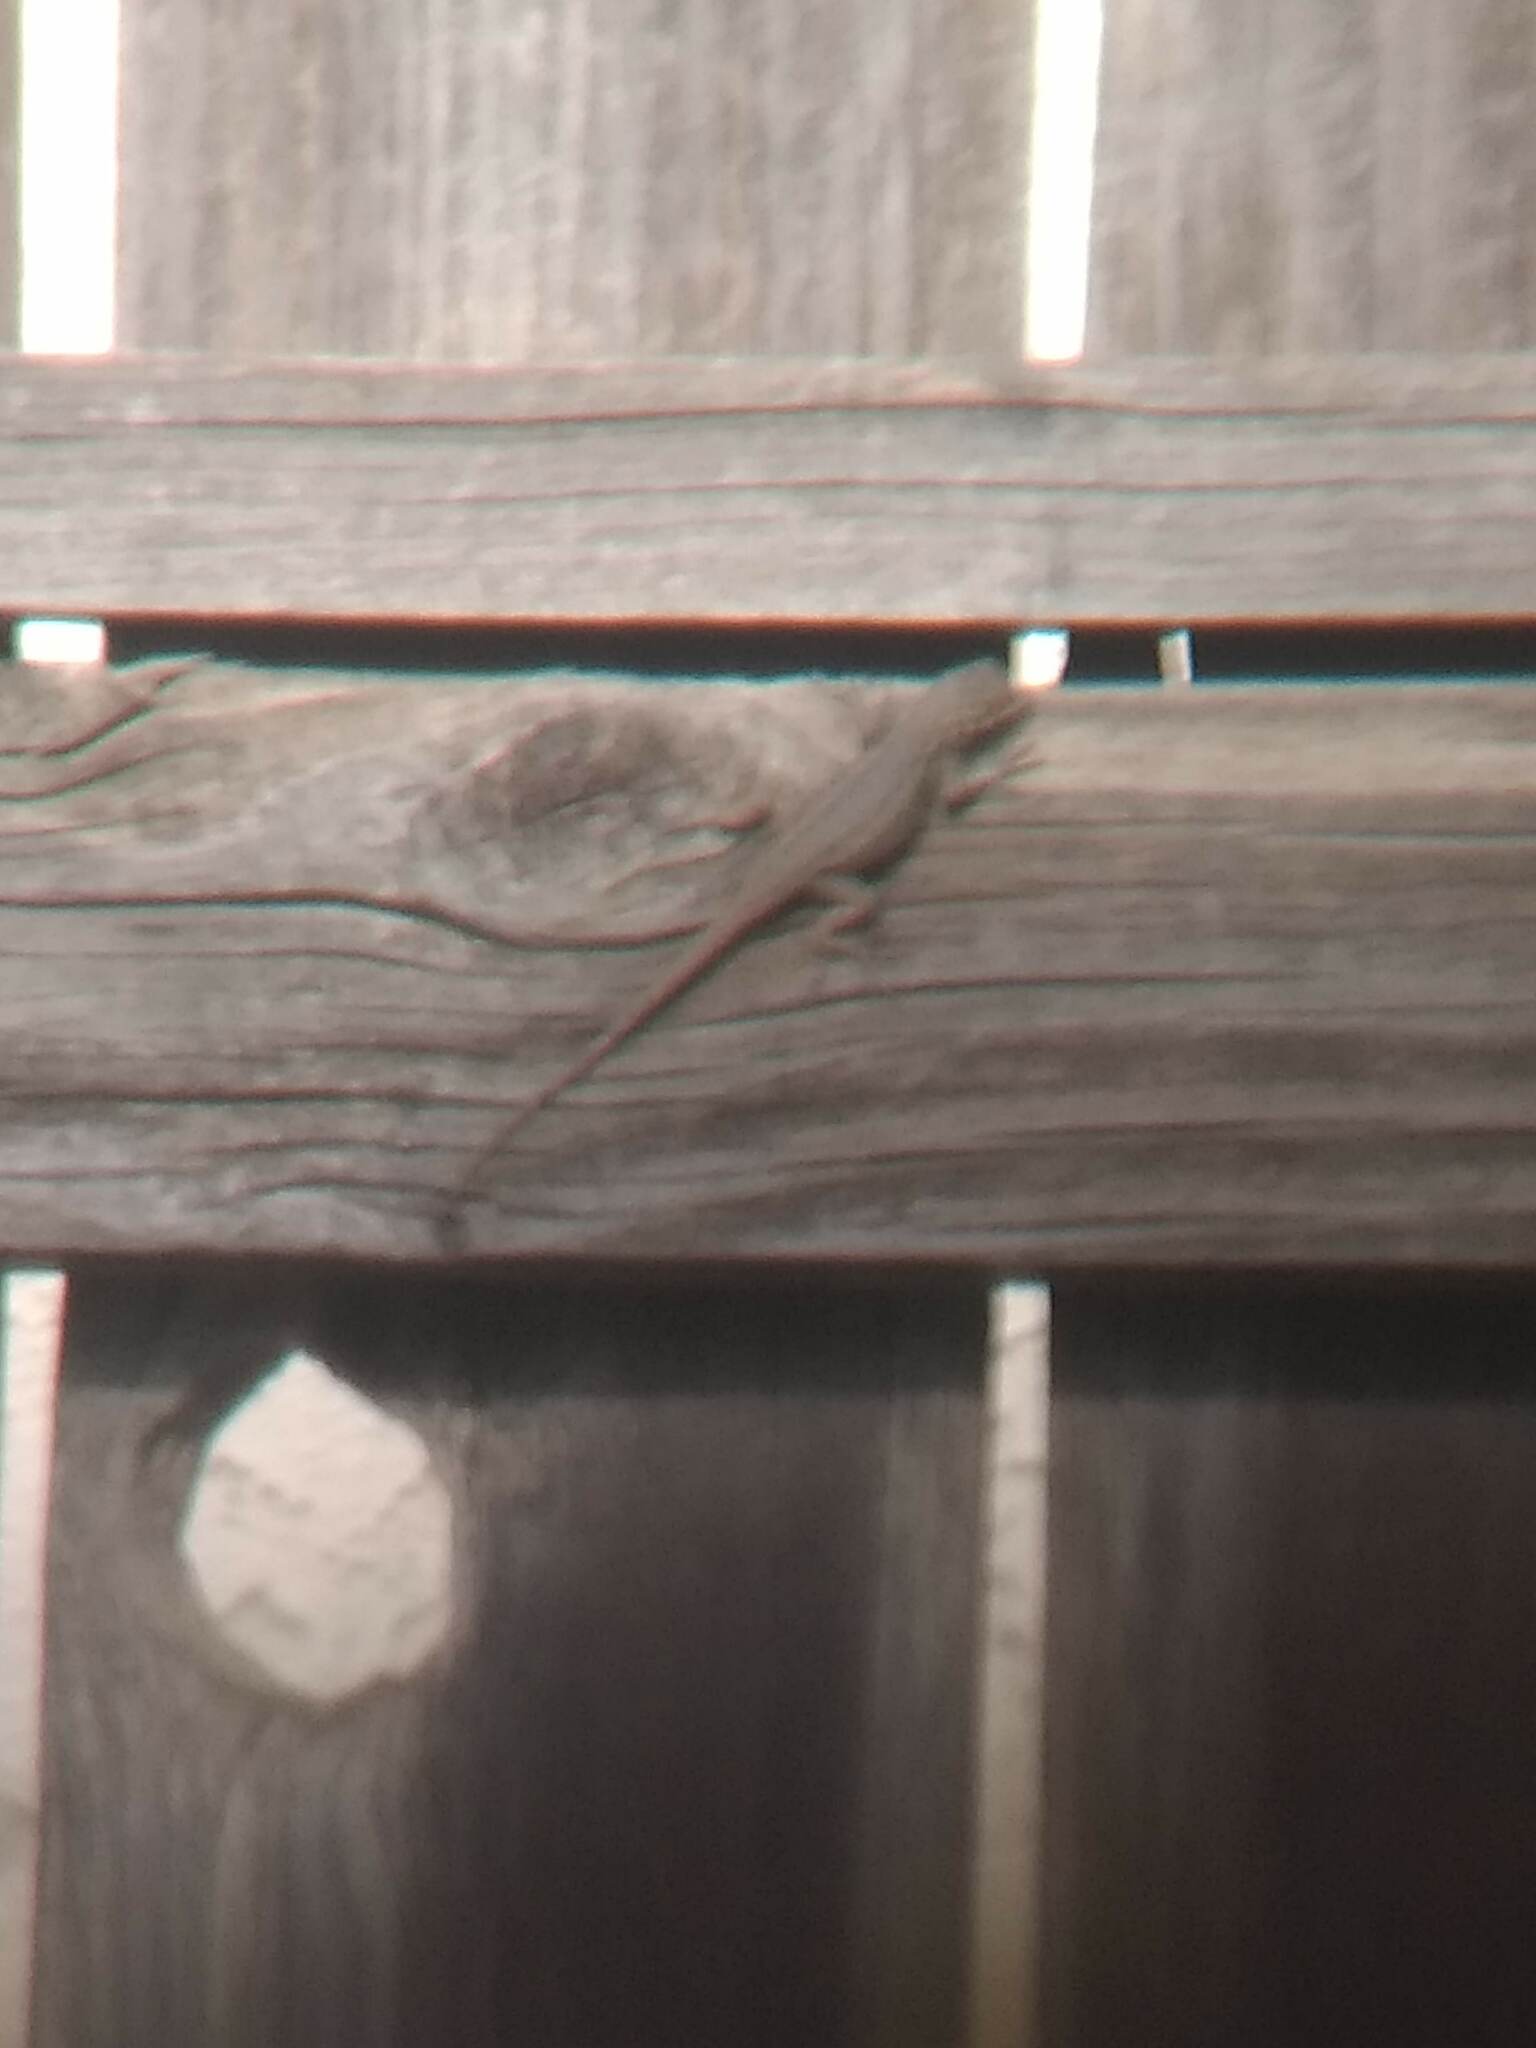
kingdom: Animalia
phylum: Chordata
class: Squamata
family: Phrynosomatidae
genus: Sceloporus
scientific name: Sceloporus occidentalis
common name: Western fence lizard
